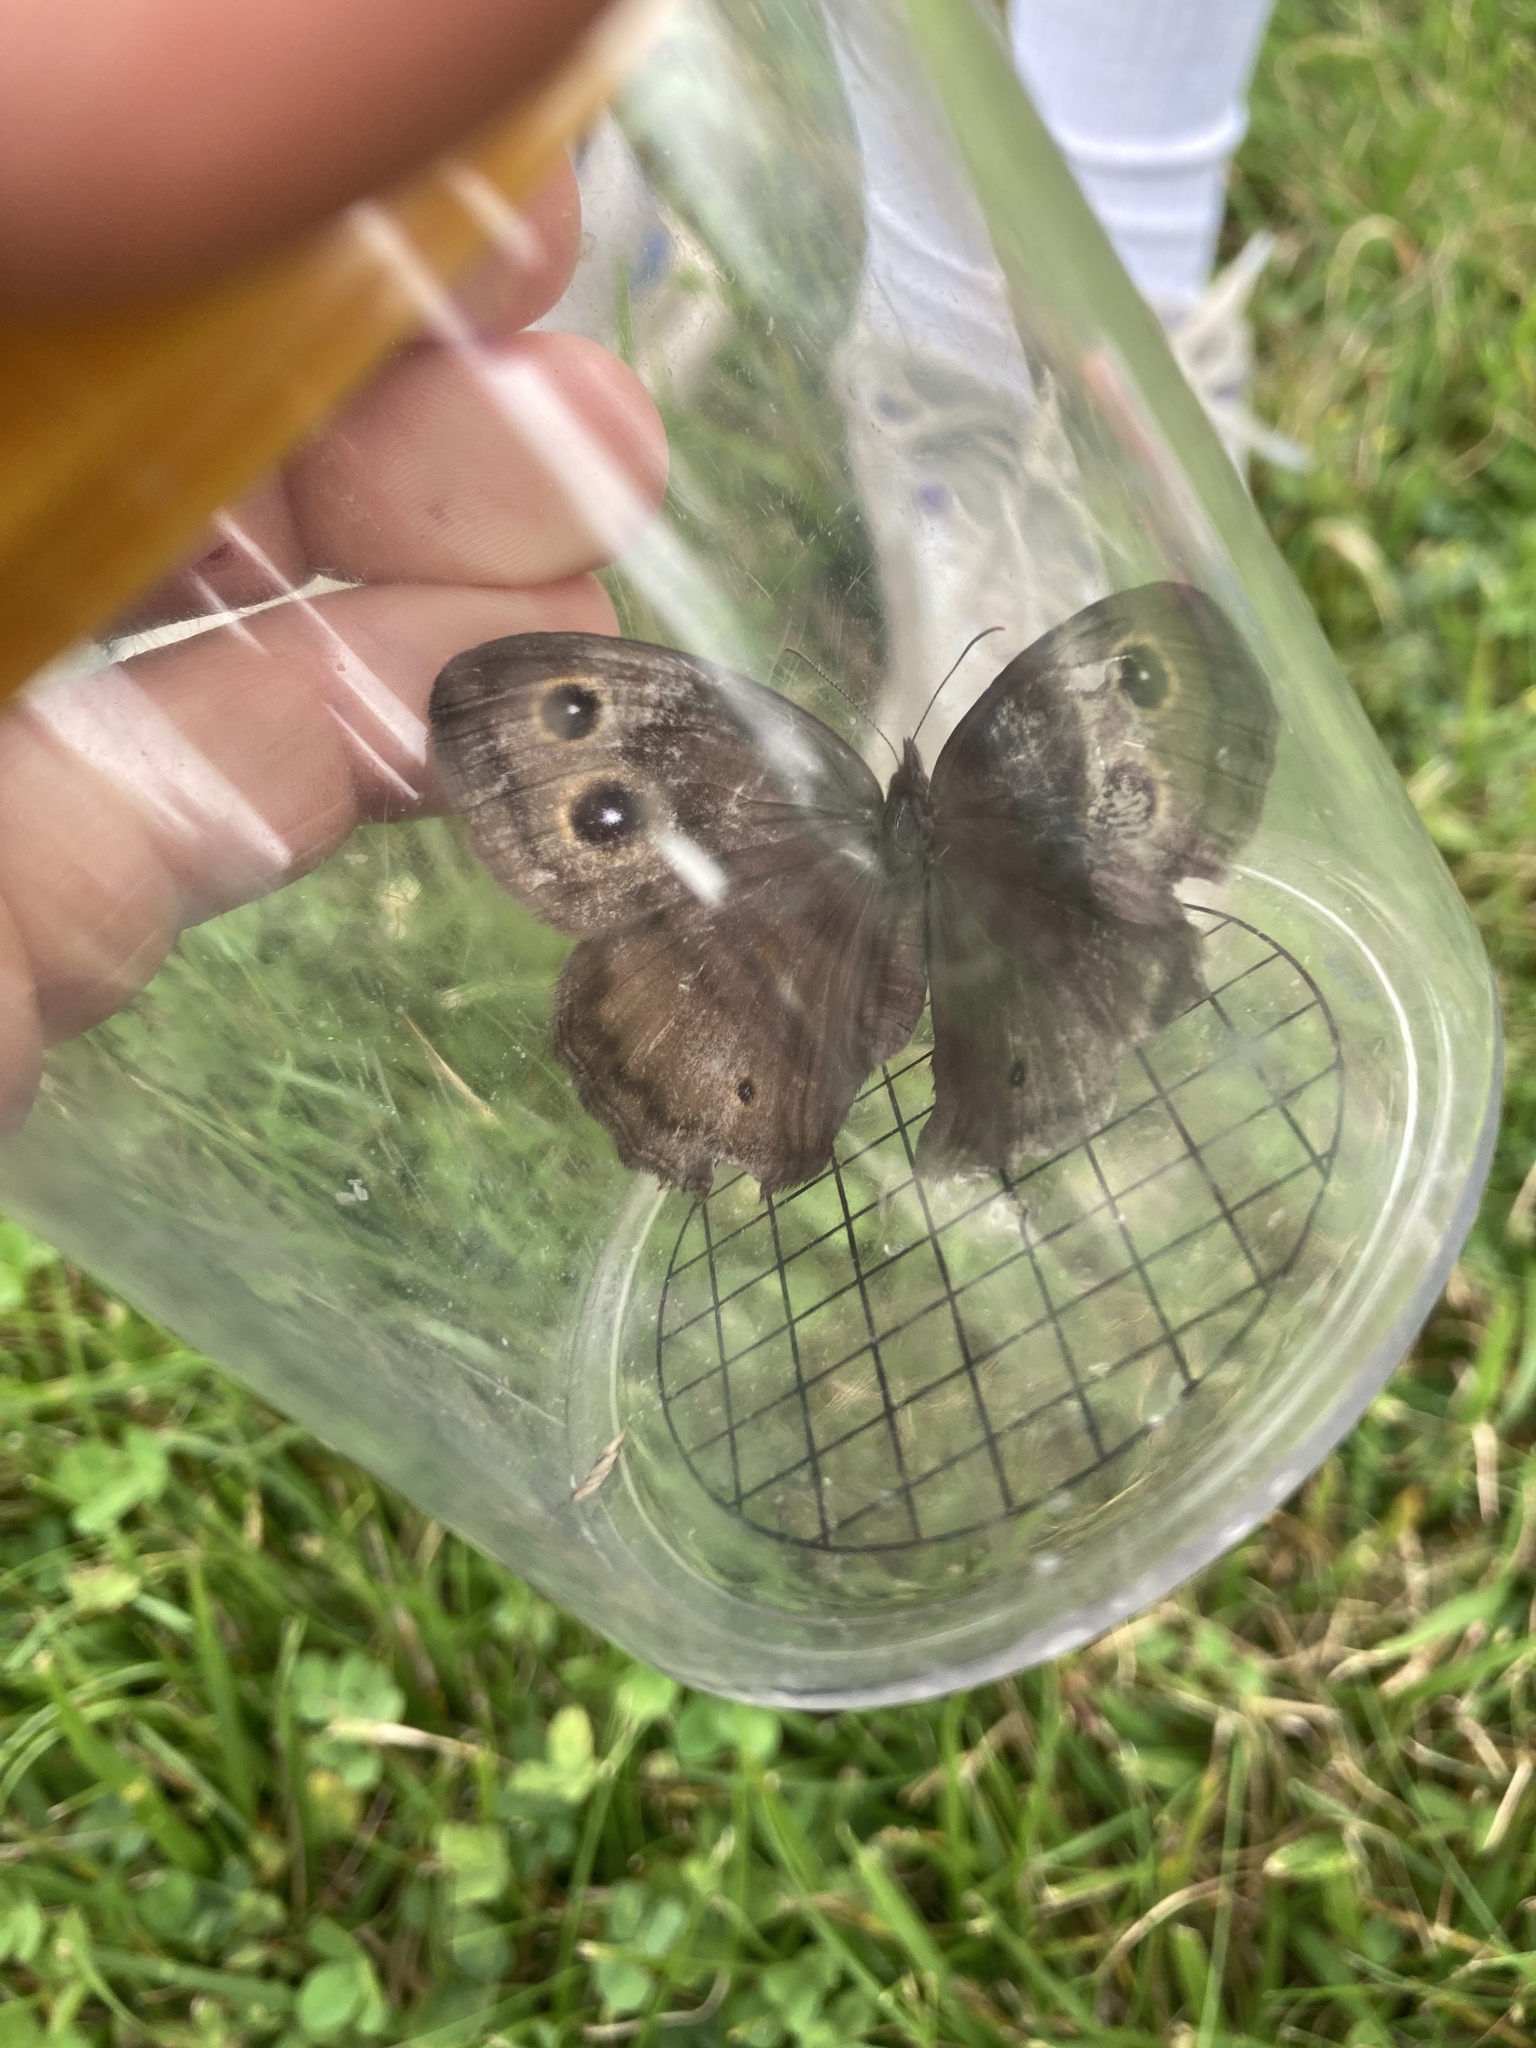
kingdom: Animalia
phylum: Arthropoda
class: Insecta
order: Lepidoptera
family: Nymphalidae
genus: Cercyonis
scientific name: Cercyonis pegala
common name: Common wood-nymph
